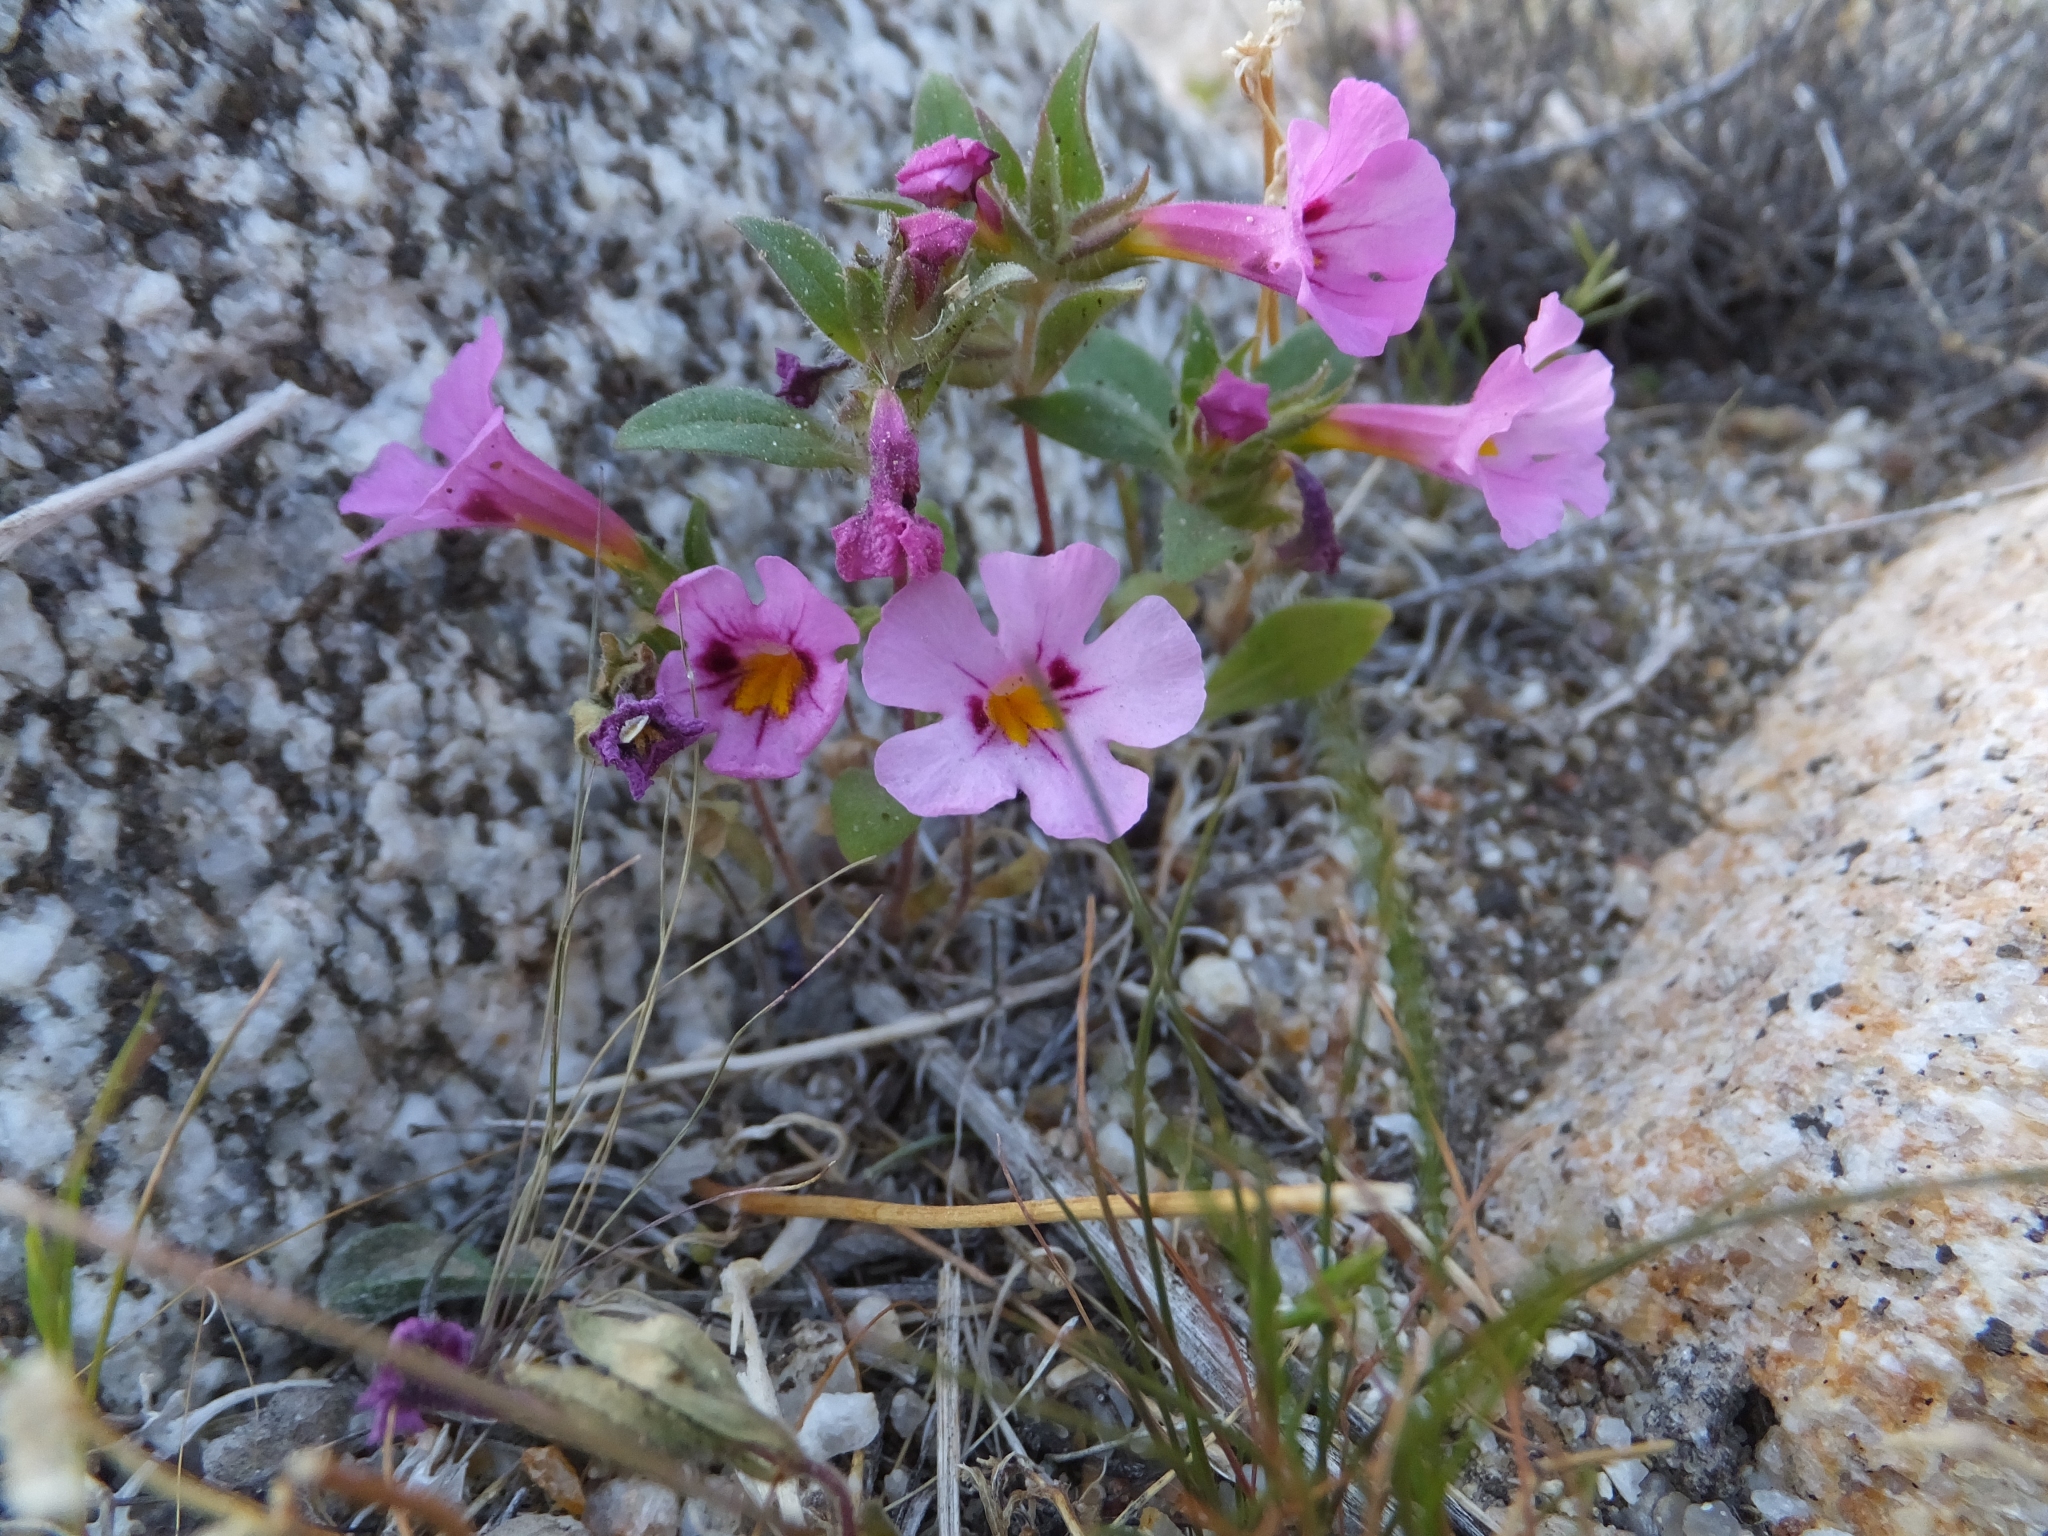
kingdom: Plantae
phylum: Tracheophyta
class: Magnoliopsida
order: Lamiales
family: Phrymaceae
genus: Diplacus
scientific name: Diplacus bigelovii
